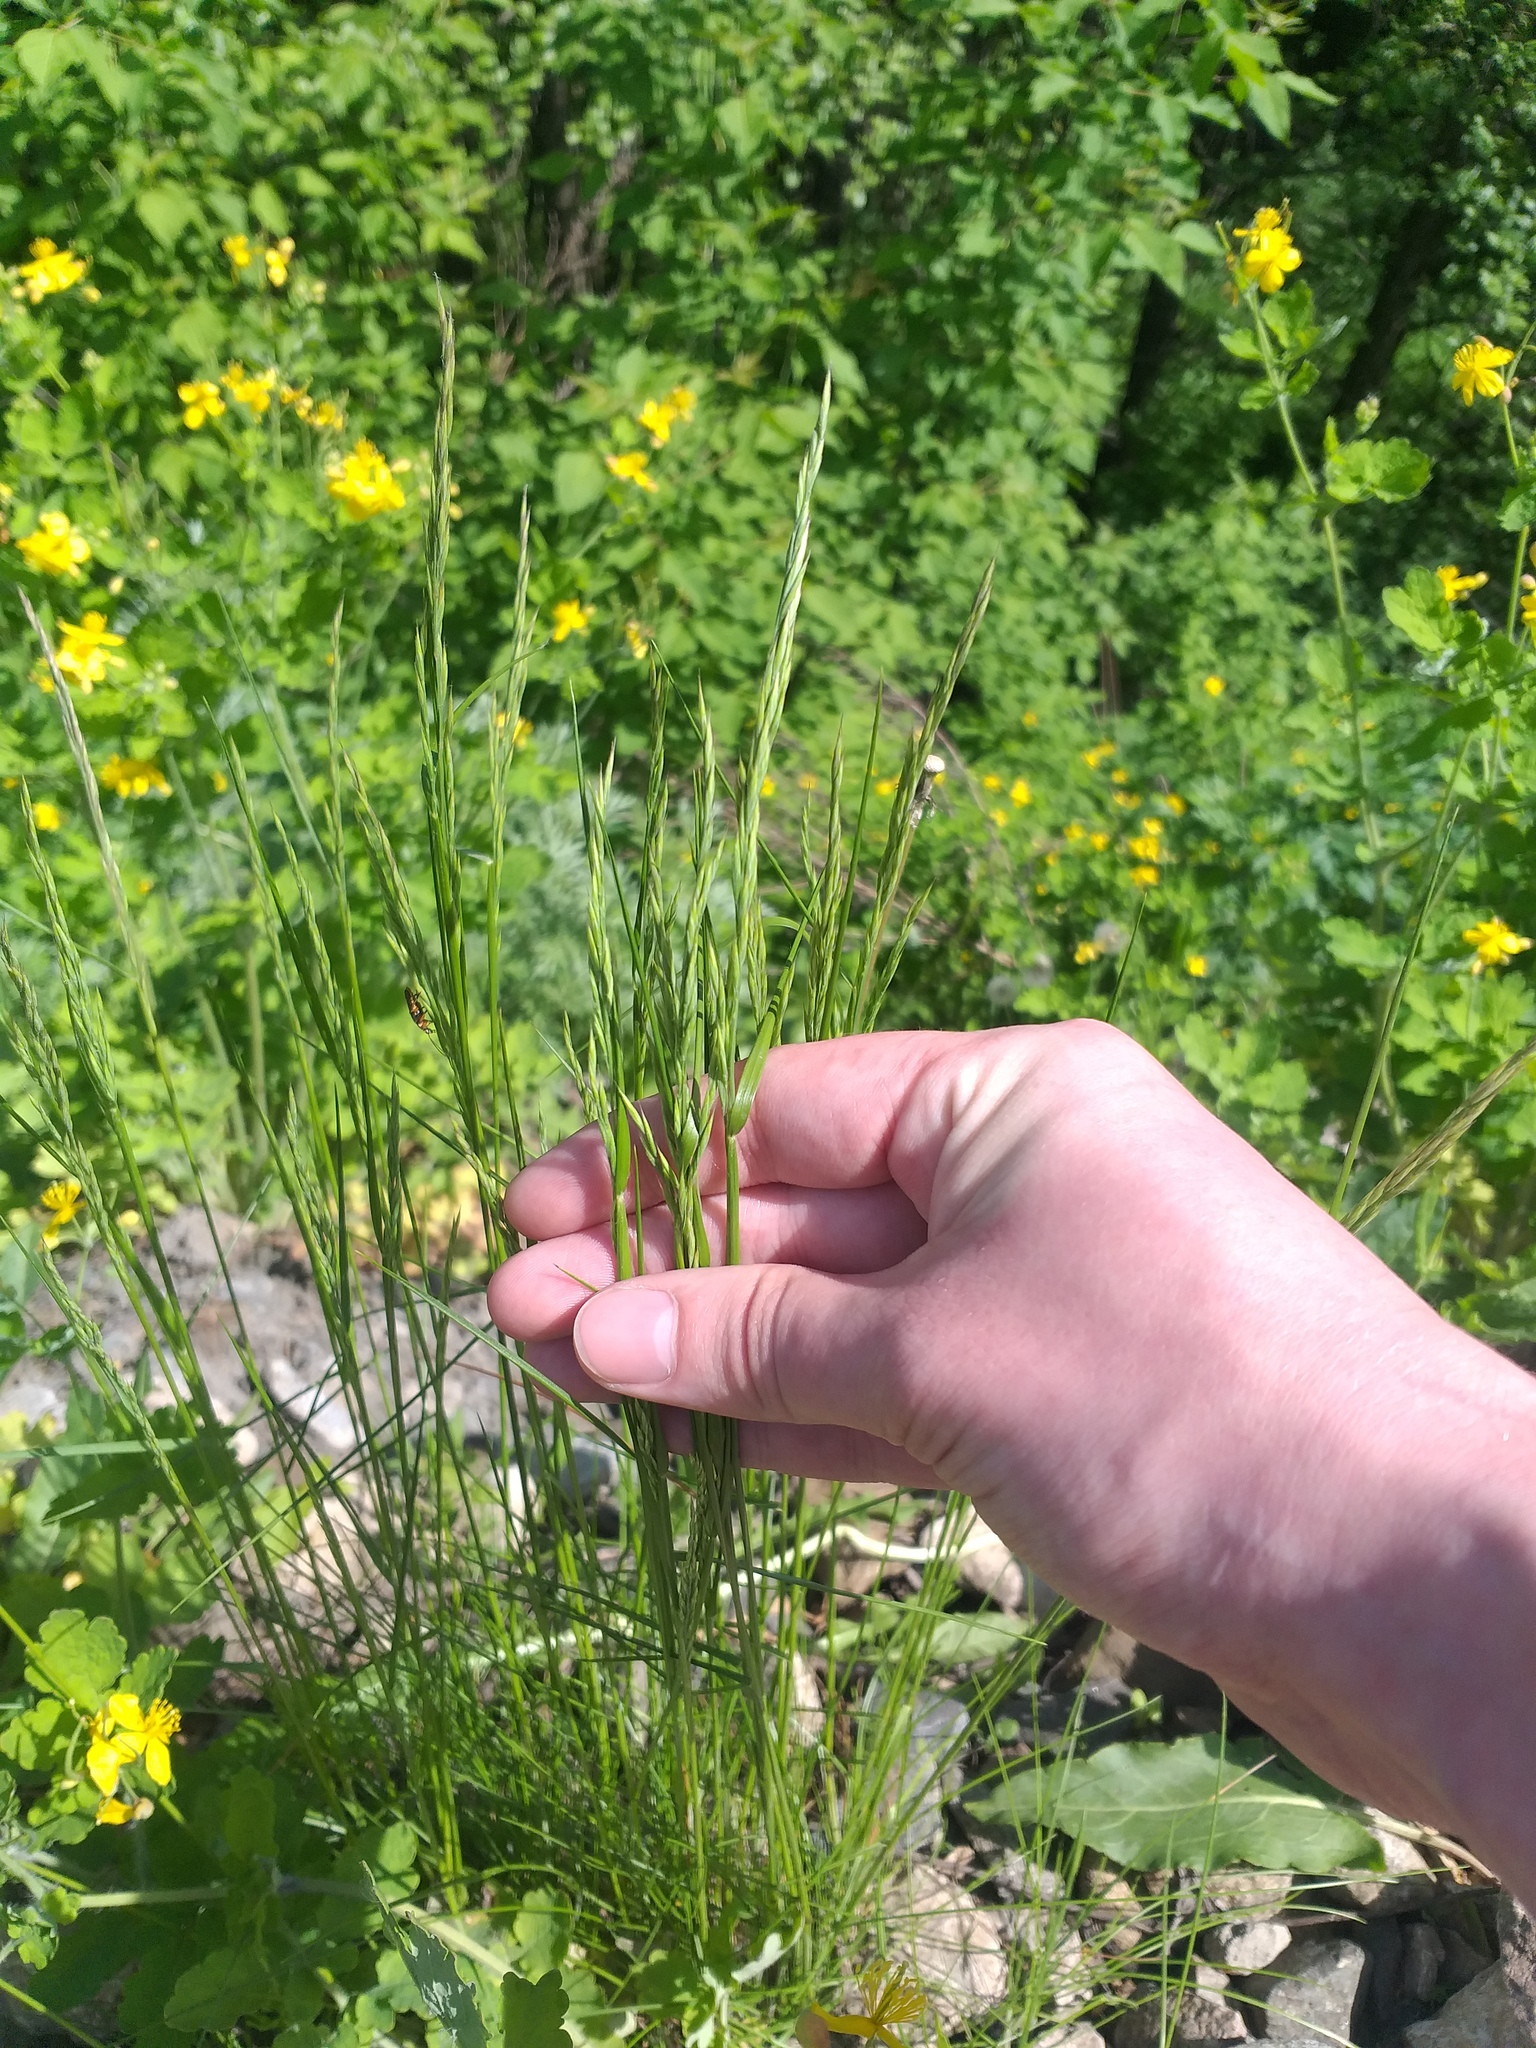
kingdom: Plantae
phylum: Tracheophyta
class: Liliopsida
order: Poales
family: Poaceae
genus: Festuca
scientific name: Festuca rubra
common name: Red fescue
